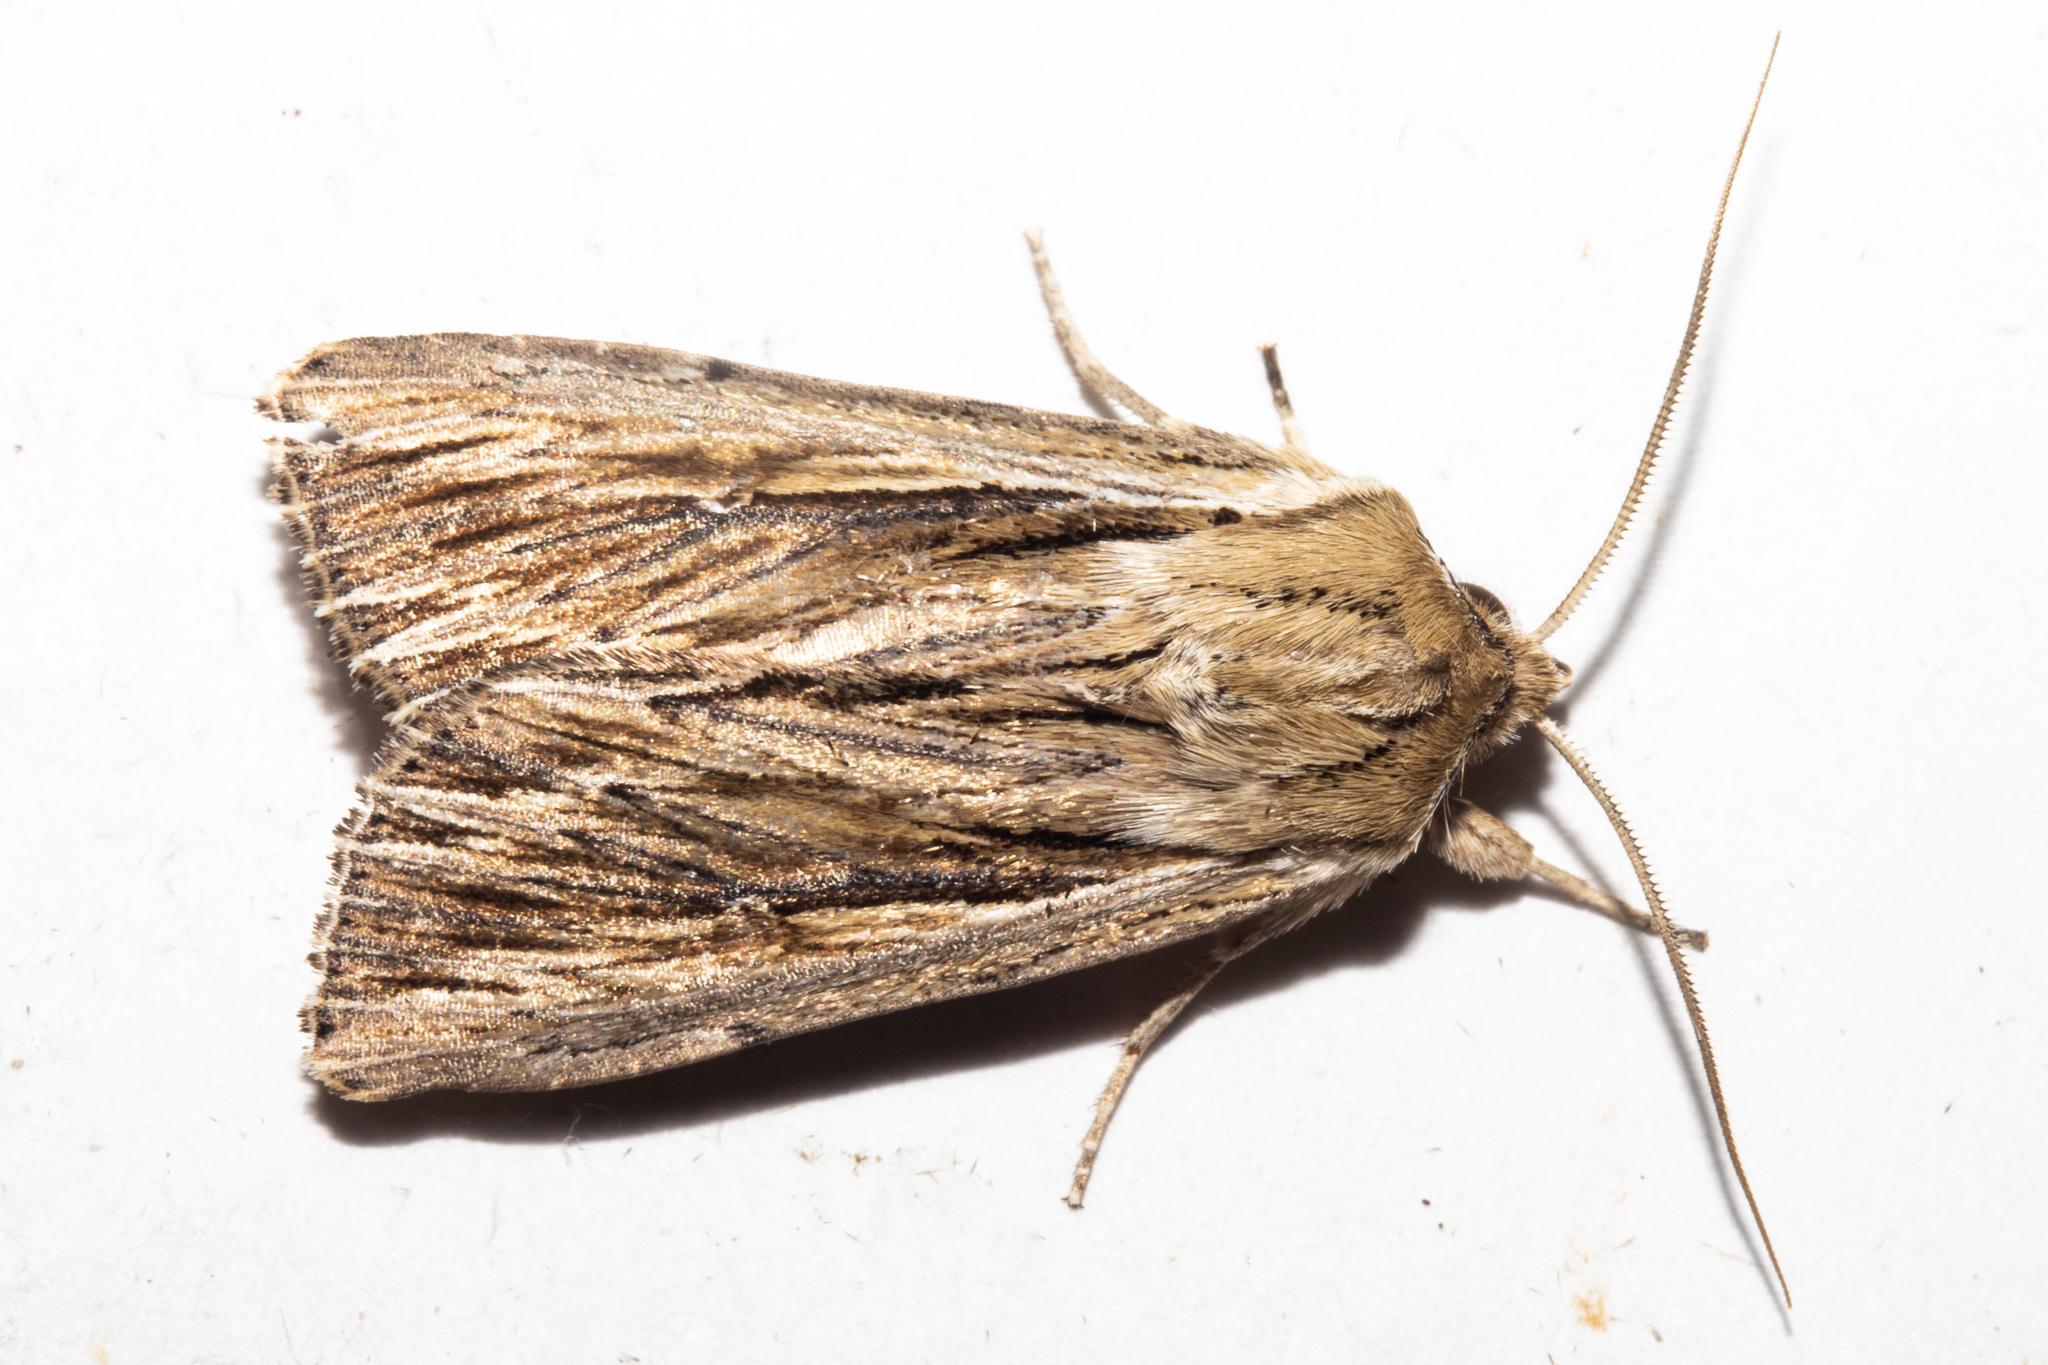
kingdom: Animalia
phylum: Arthropoda
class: Insecta
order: Lepidoptera
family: Noctuidae
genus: Persectania
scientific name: Persectania aversa
